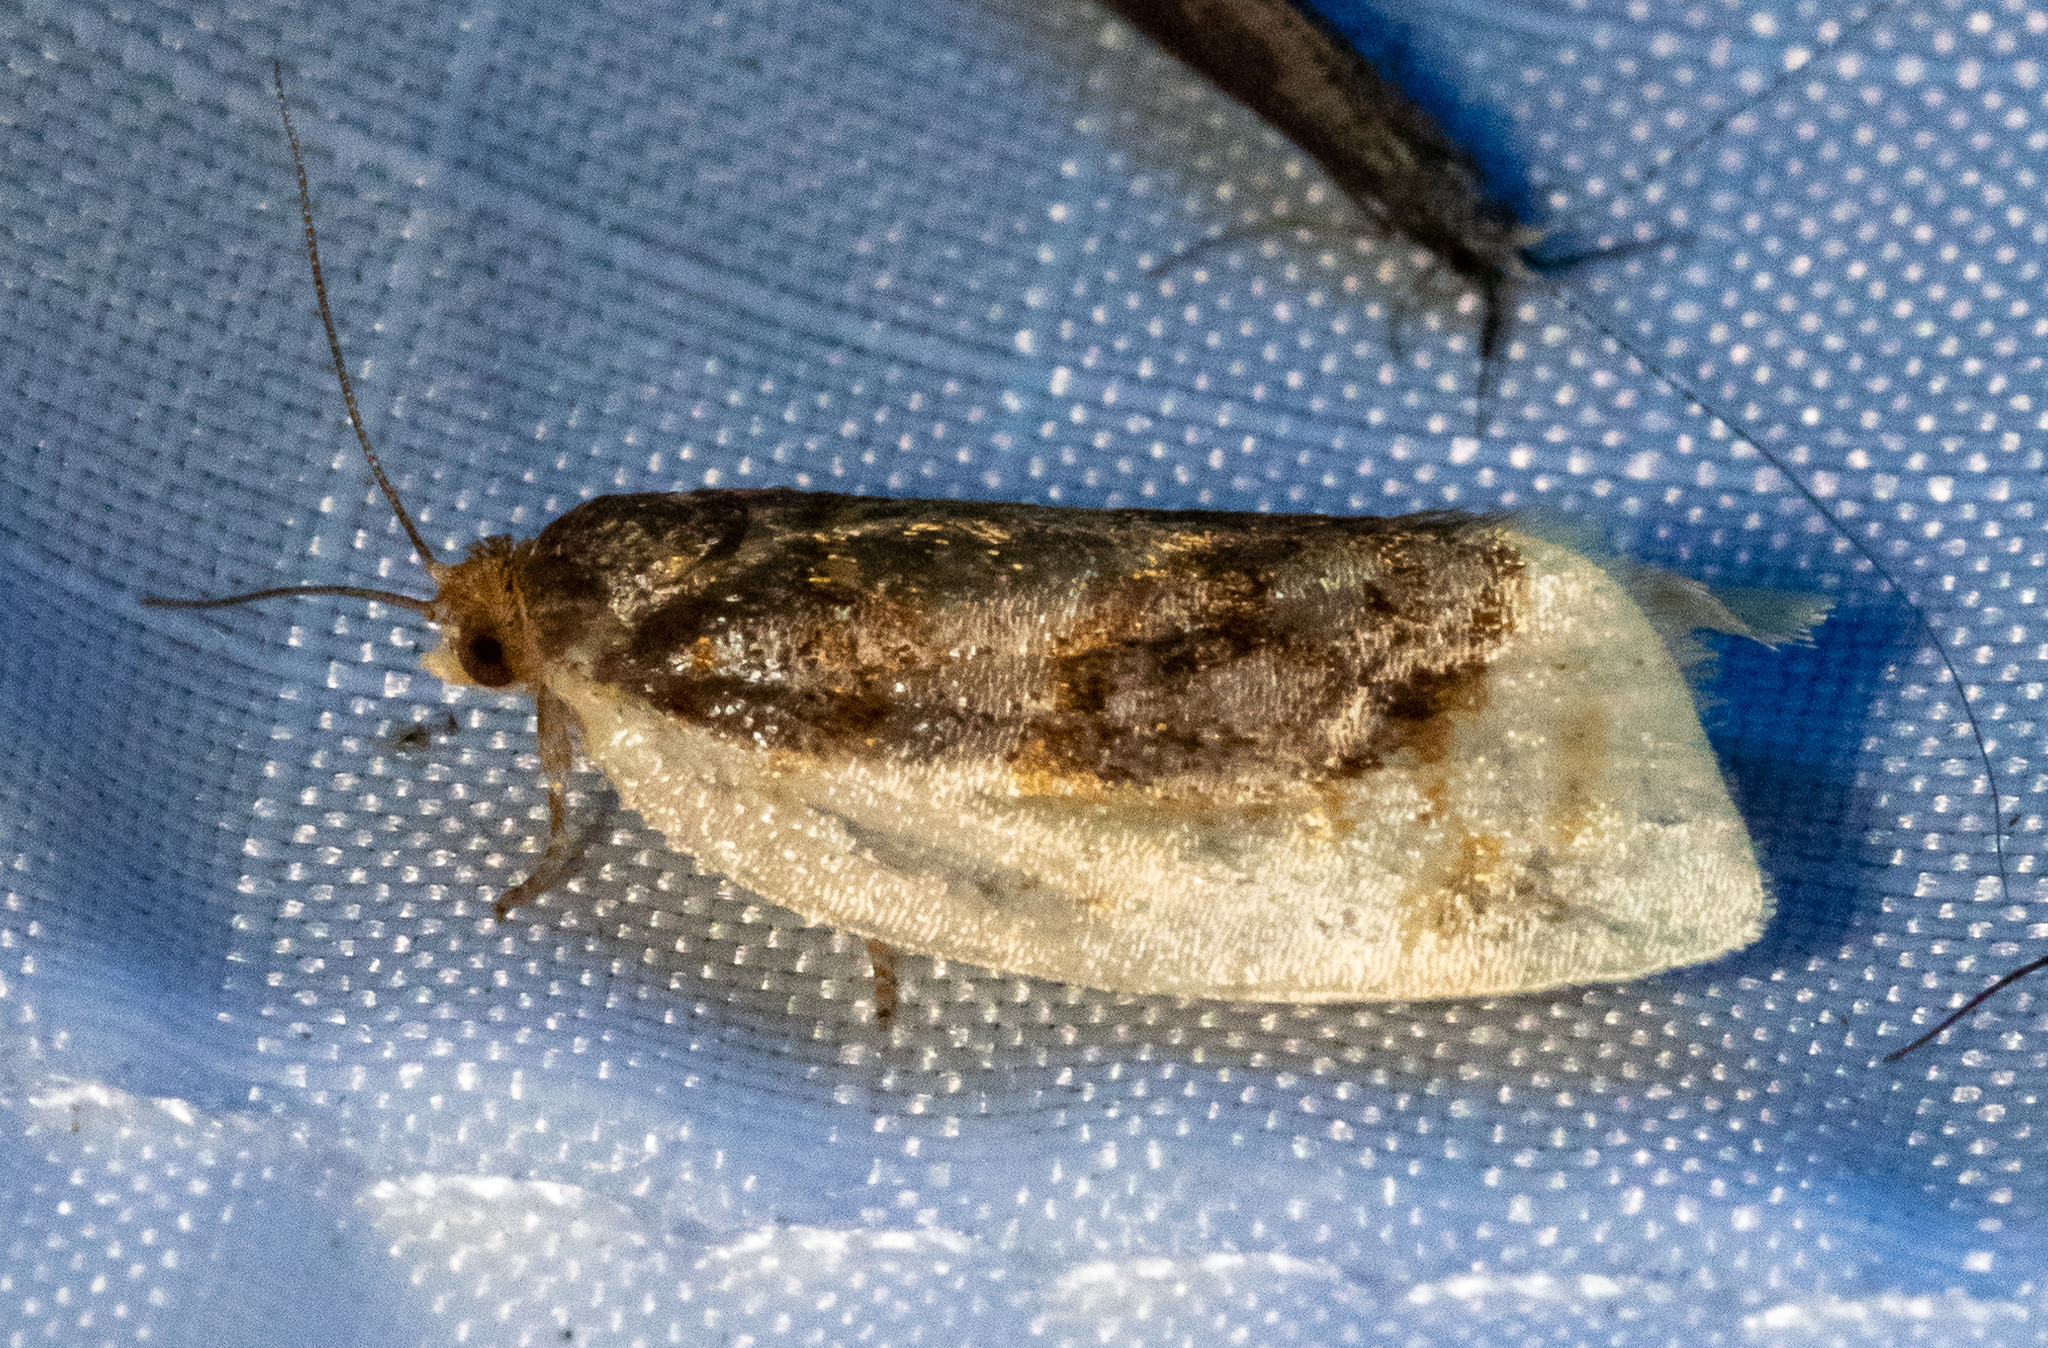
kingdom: Animalia
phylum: Arthropoda
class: Insecta
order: Lepidoptera
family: Tortricidae
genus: Clepsis
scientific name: Clepsis melaleucanus
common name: American apple tortrix
